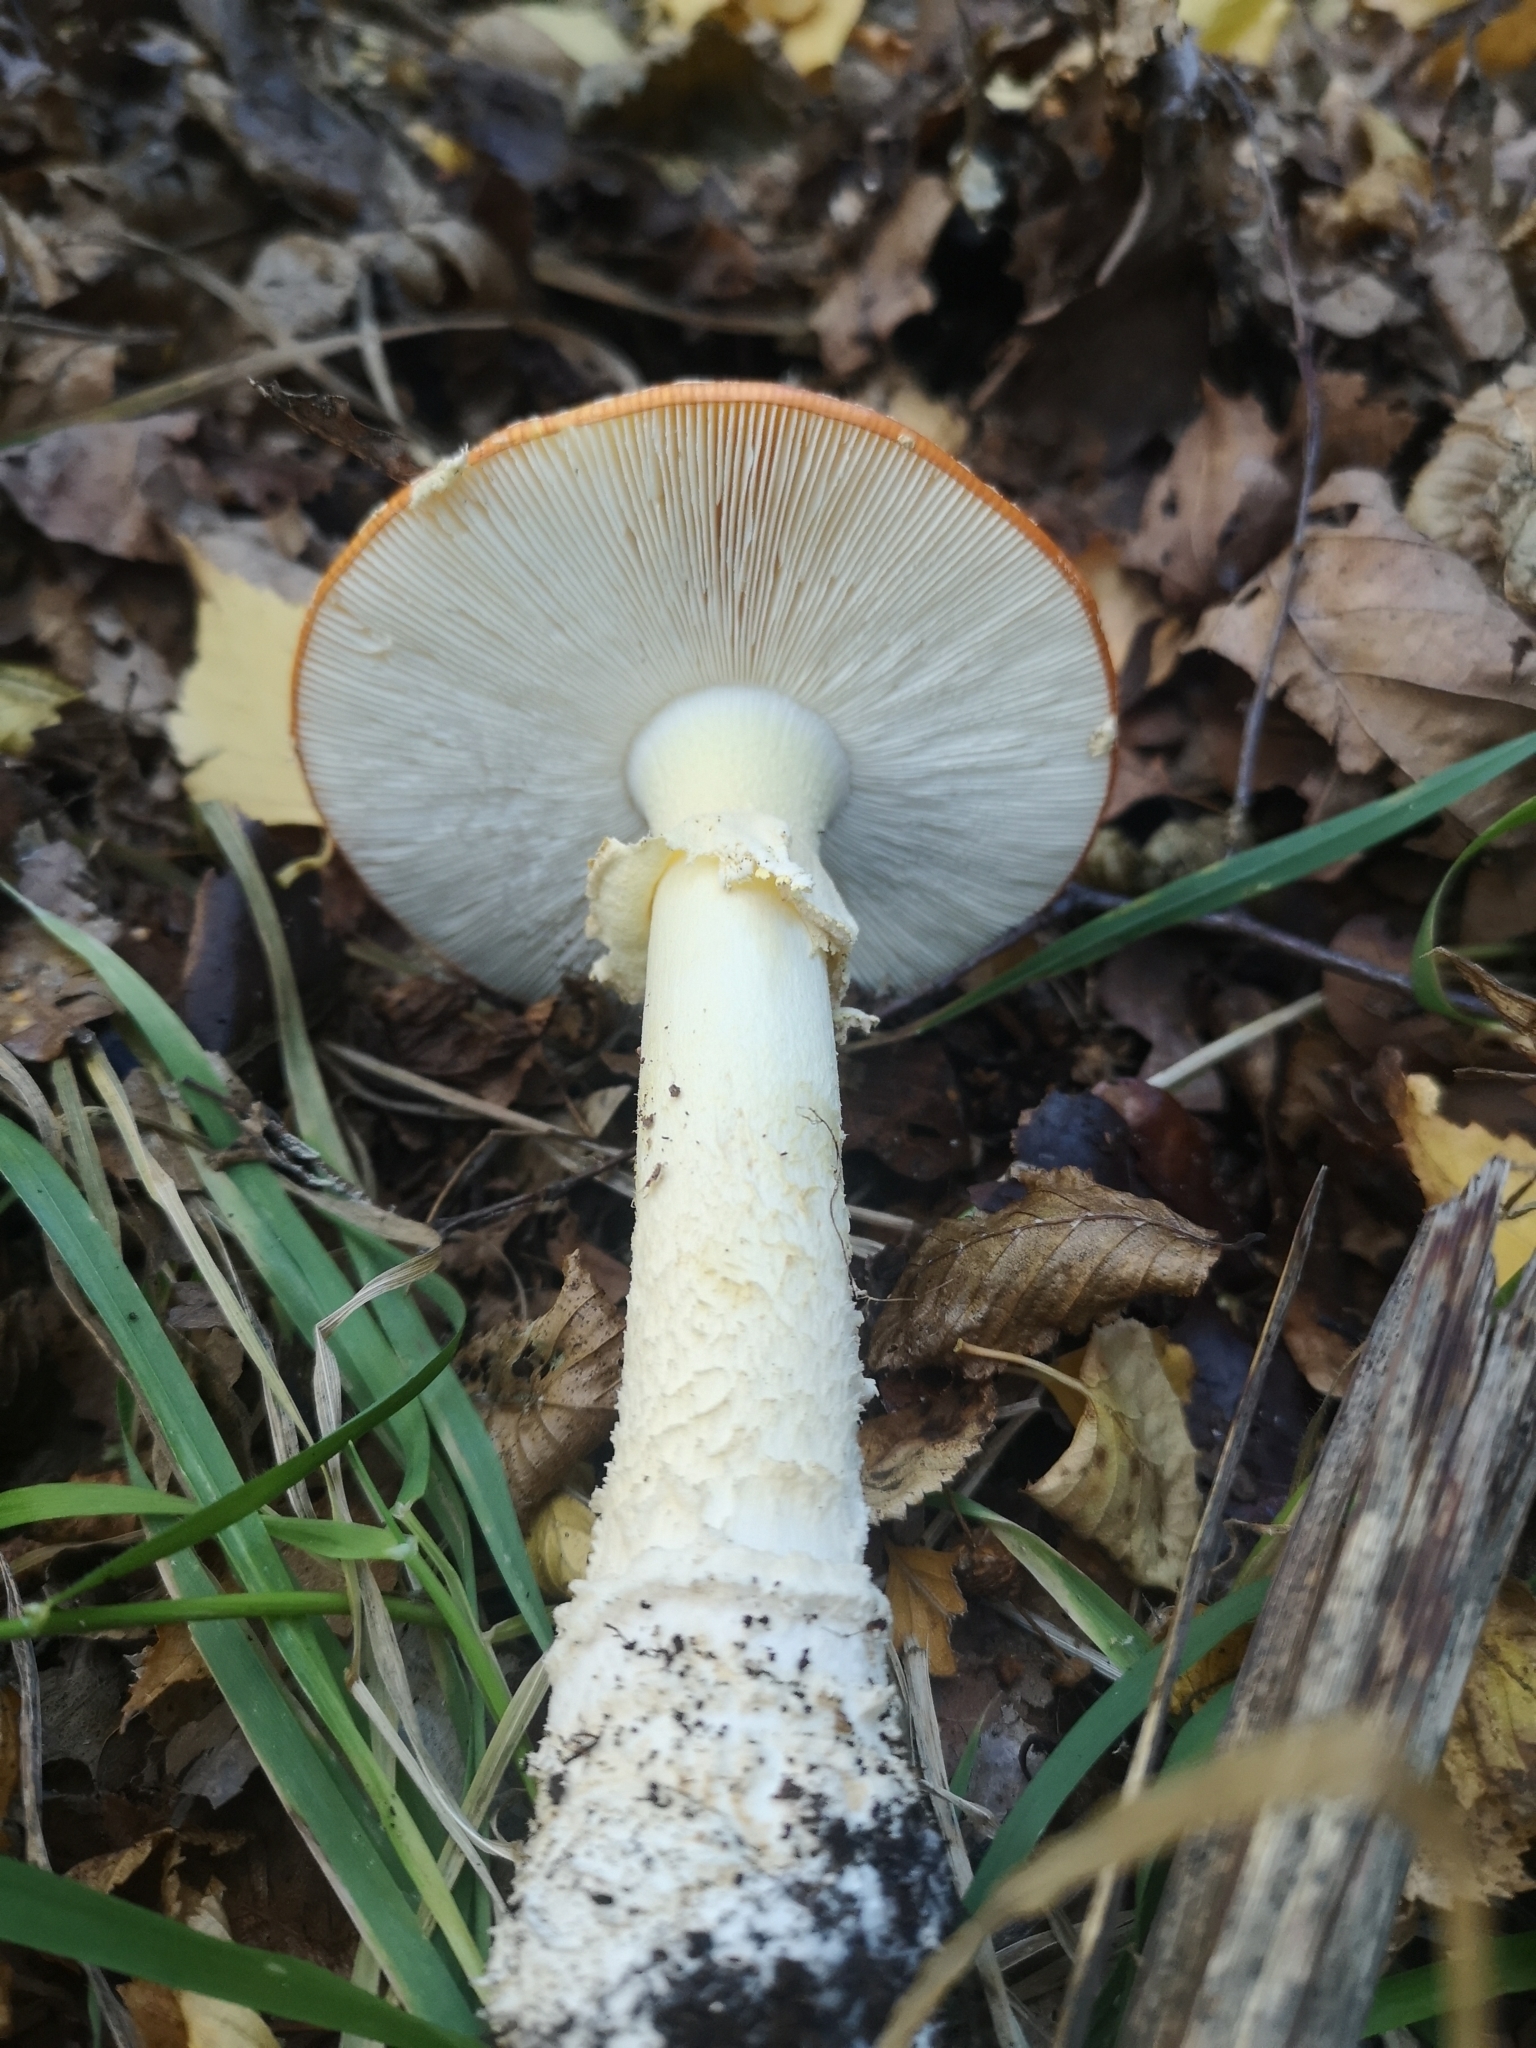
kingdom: Fungi
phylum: Basidiomycota
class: Agaricomycetes
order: Agaricales
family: Amanitaceae
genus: Amanita
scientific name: Amanita muscaria
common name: Fly agaric
